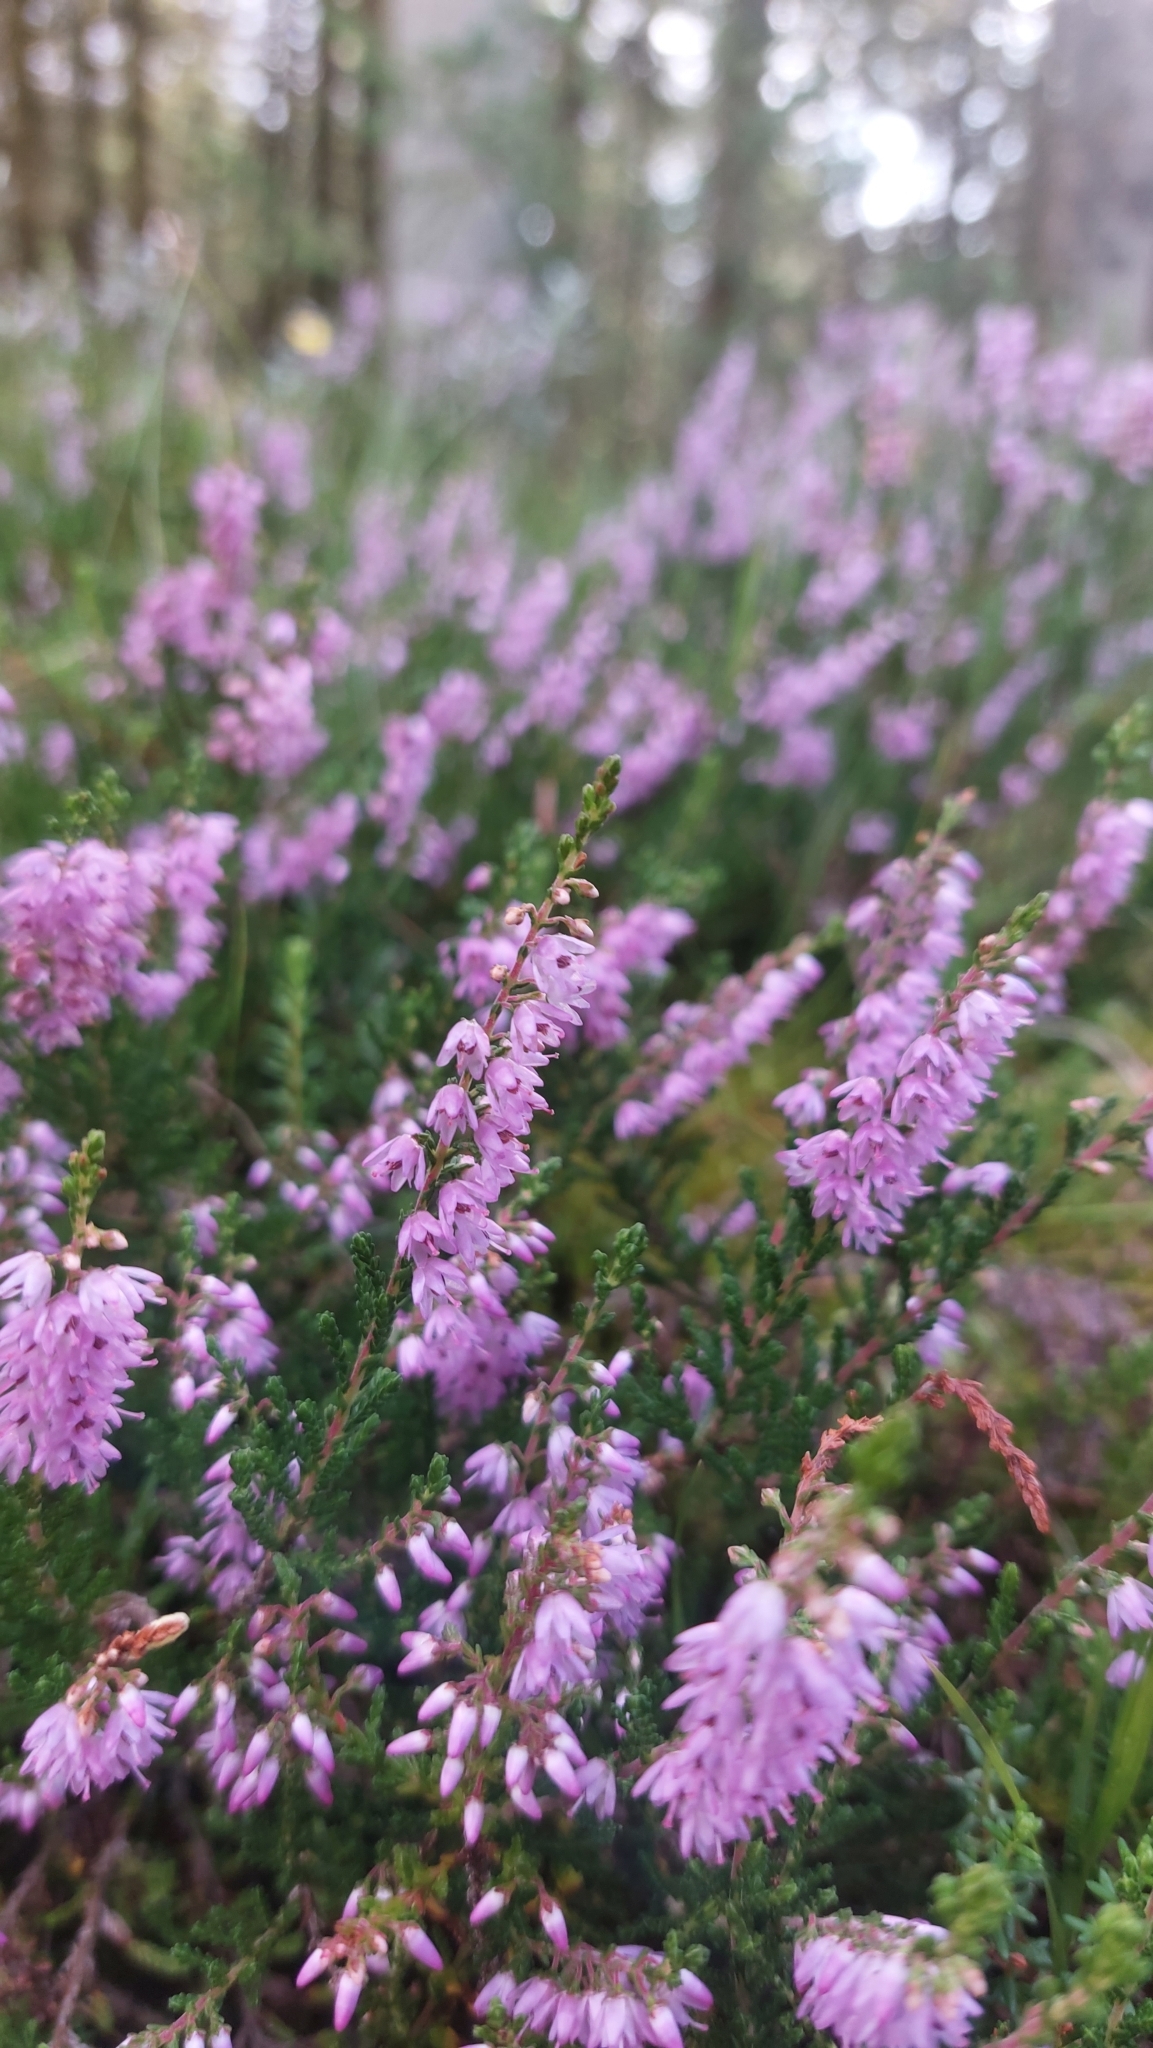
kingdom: Plantae
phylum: Tracheophyta
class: Magnoliopsida
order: Ericales
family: Ericaceae
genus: Calluna
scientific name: Calluna vulgaris
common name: Heather
